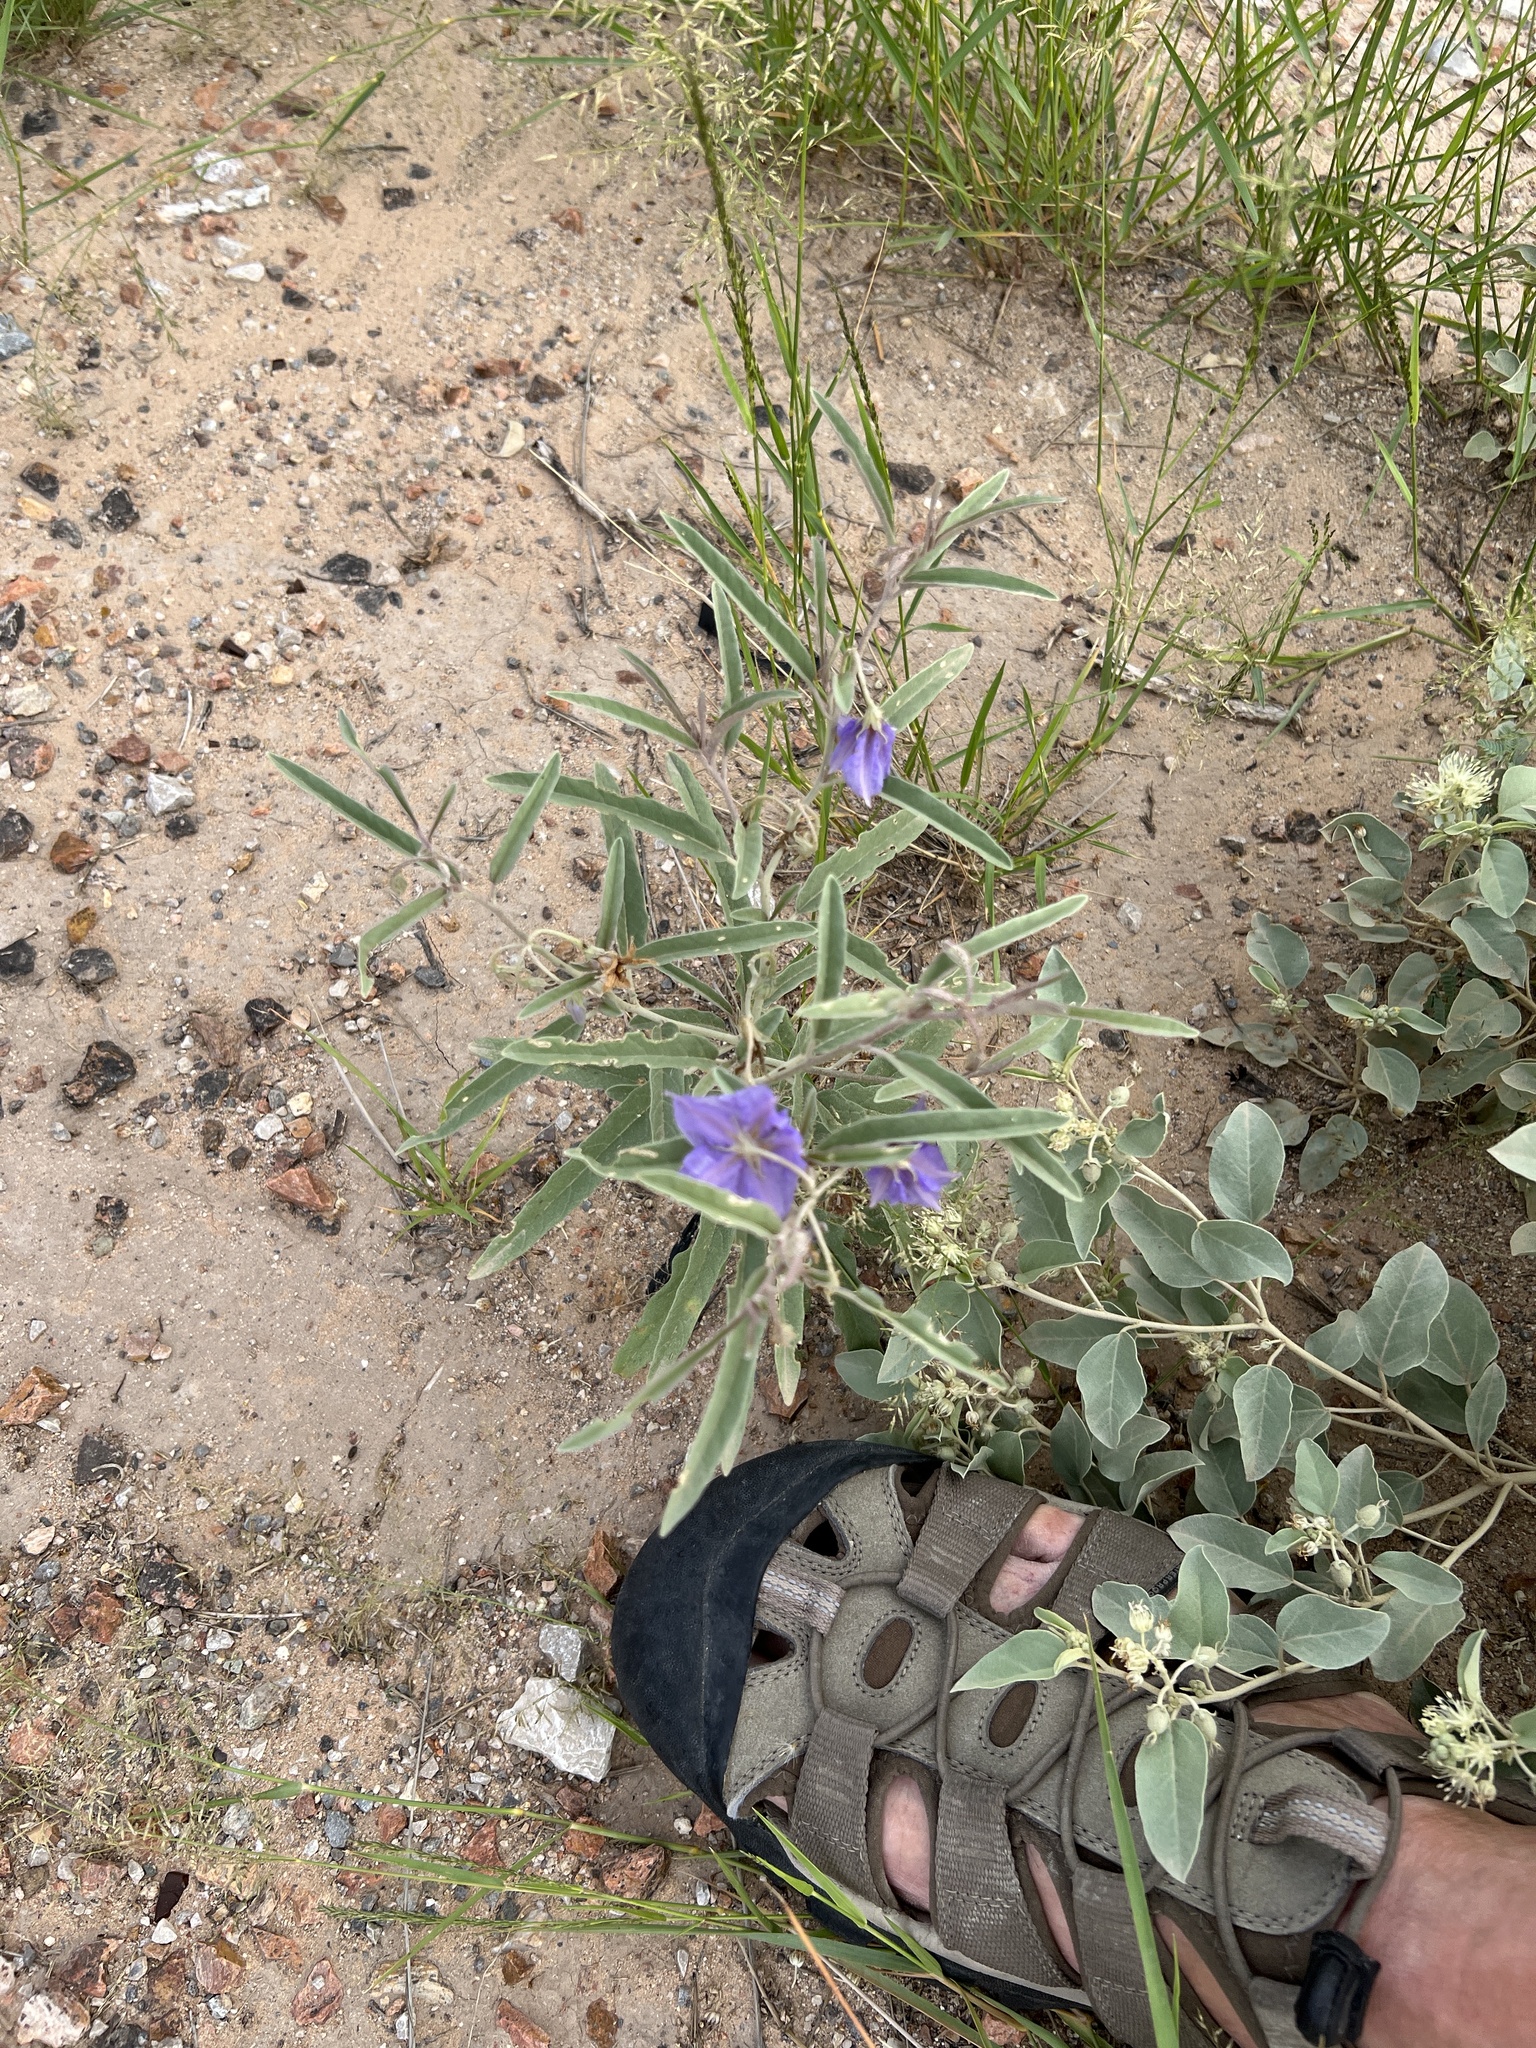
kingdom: Plantae
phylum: Tracheophyta
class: Magnoliopsida
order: Solanales
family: Solanaceae
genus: Solanum
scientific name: Solanum elaeagnifolium
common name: Silverleaf nightshade
